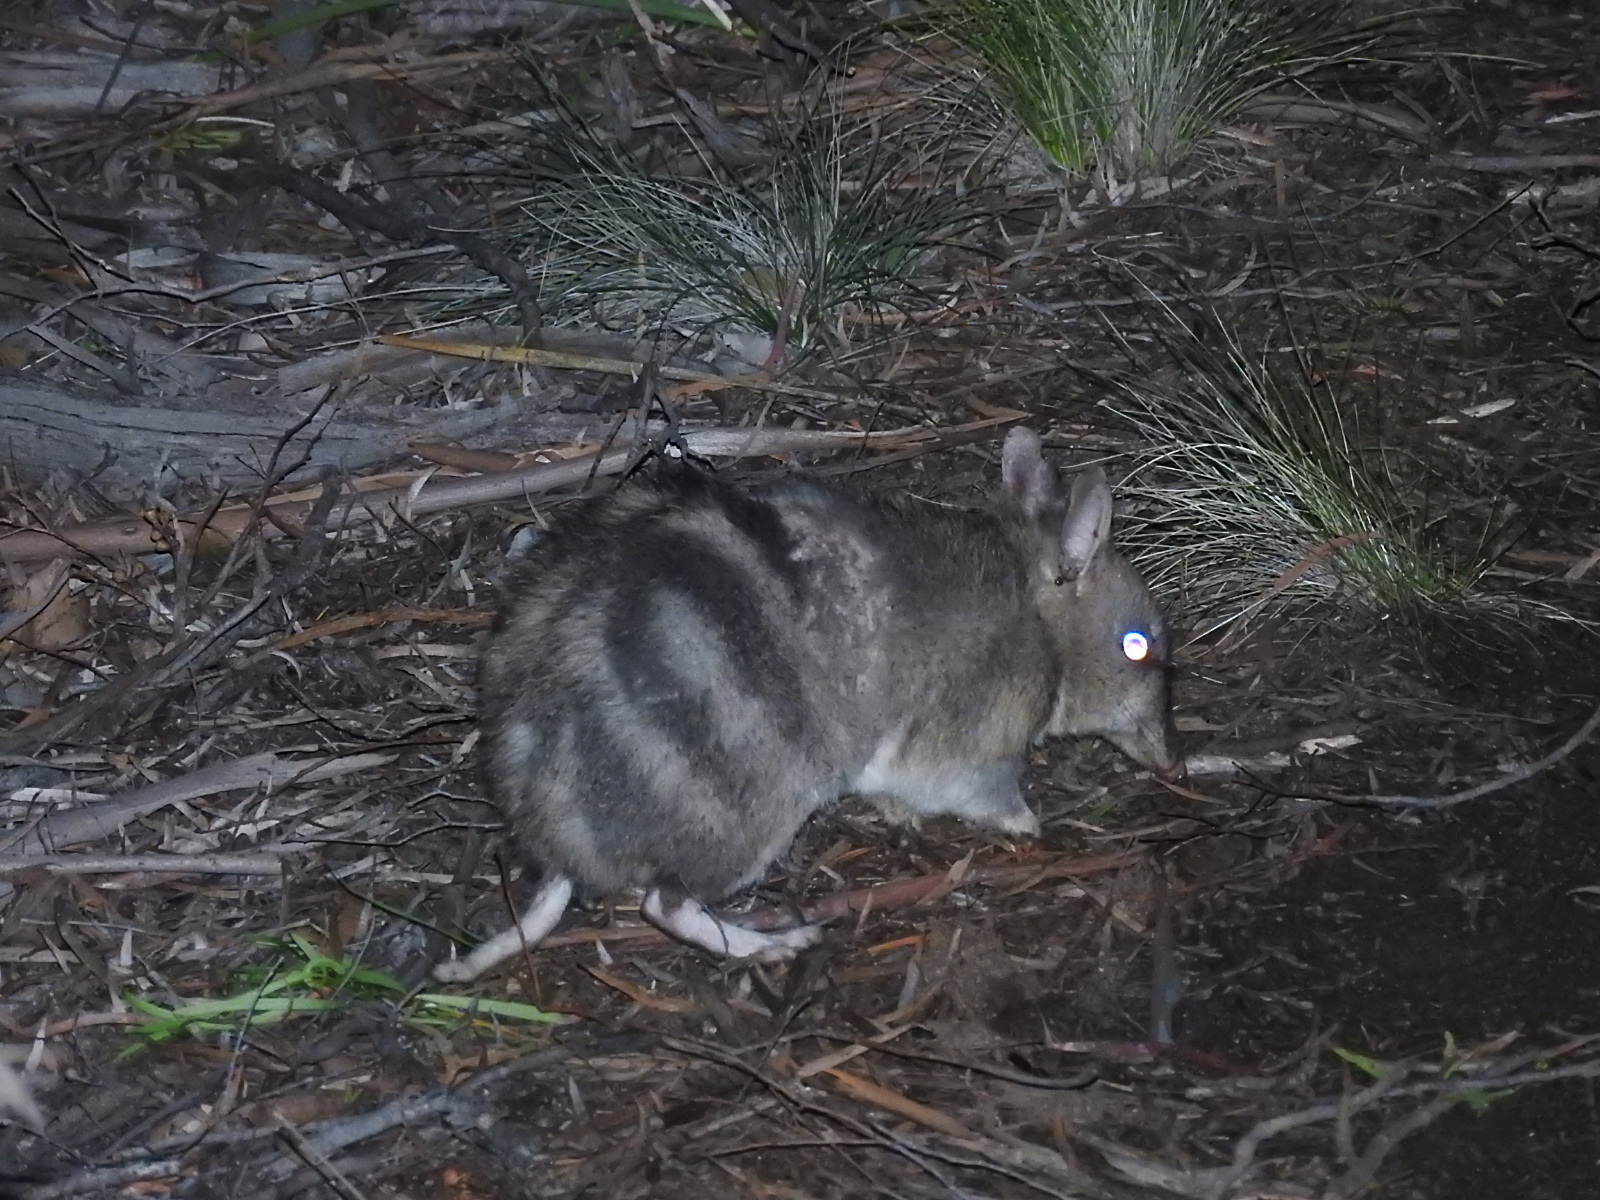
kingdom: Animalia
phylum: Chordata
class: Mammalia
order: Peramelemorphia
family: Peramelidae
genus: Perameles
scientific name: Perameles gunnii
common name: Eastern barred bandicoot
